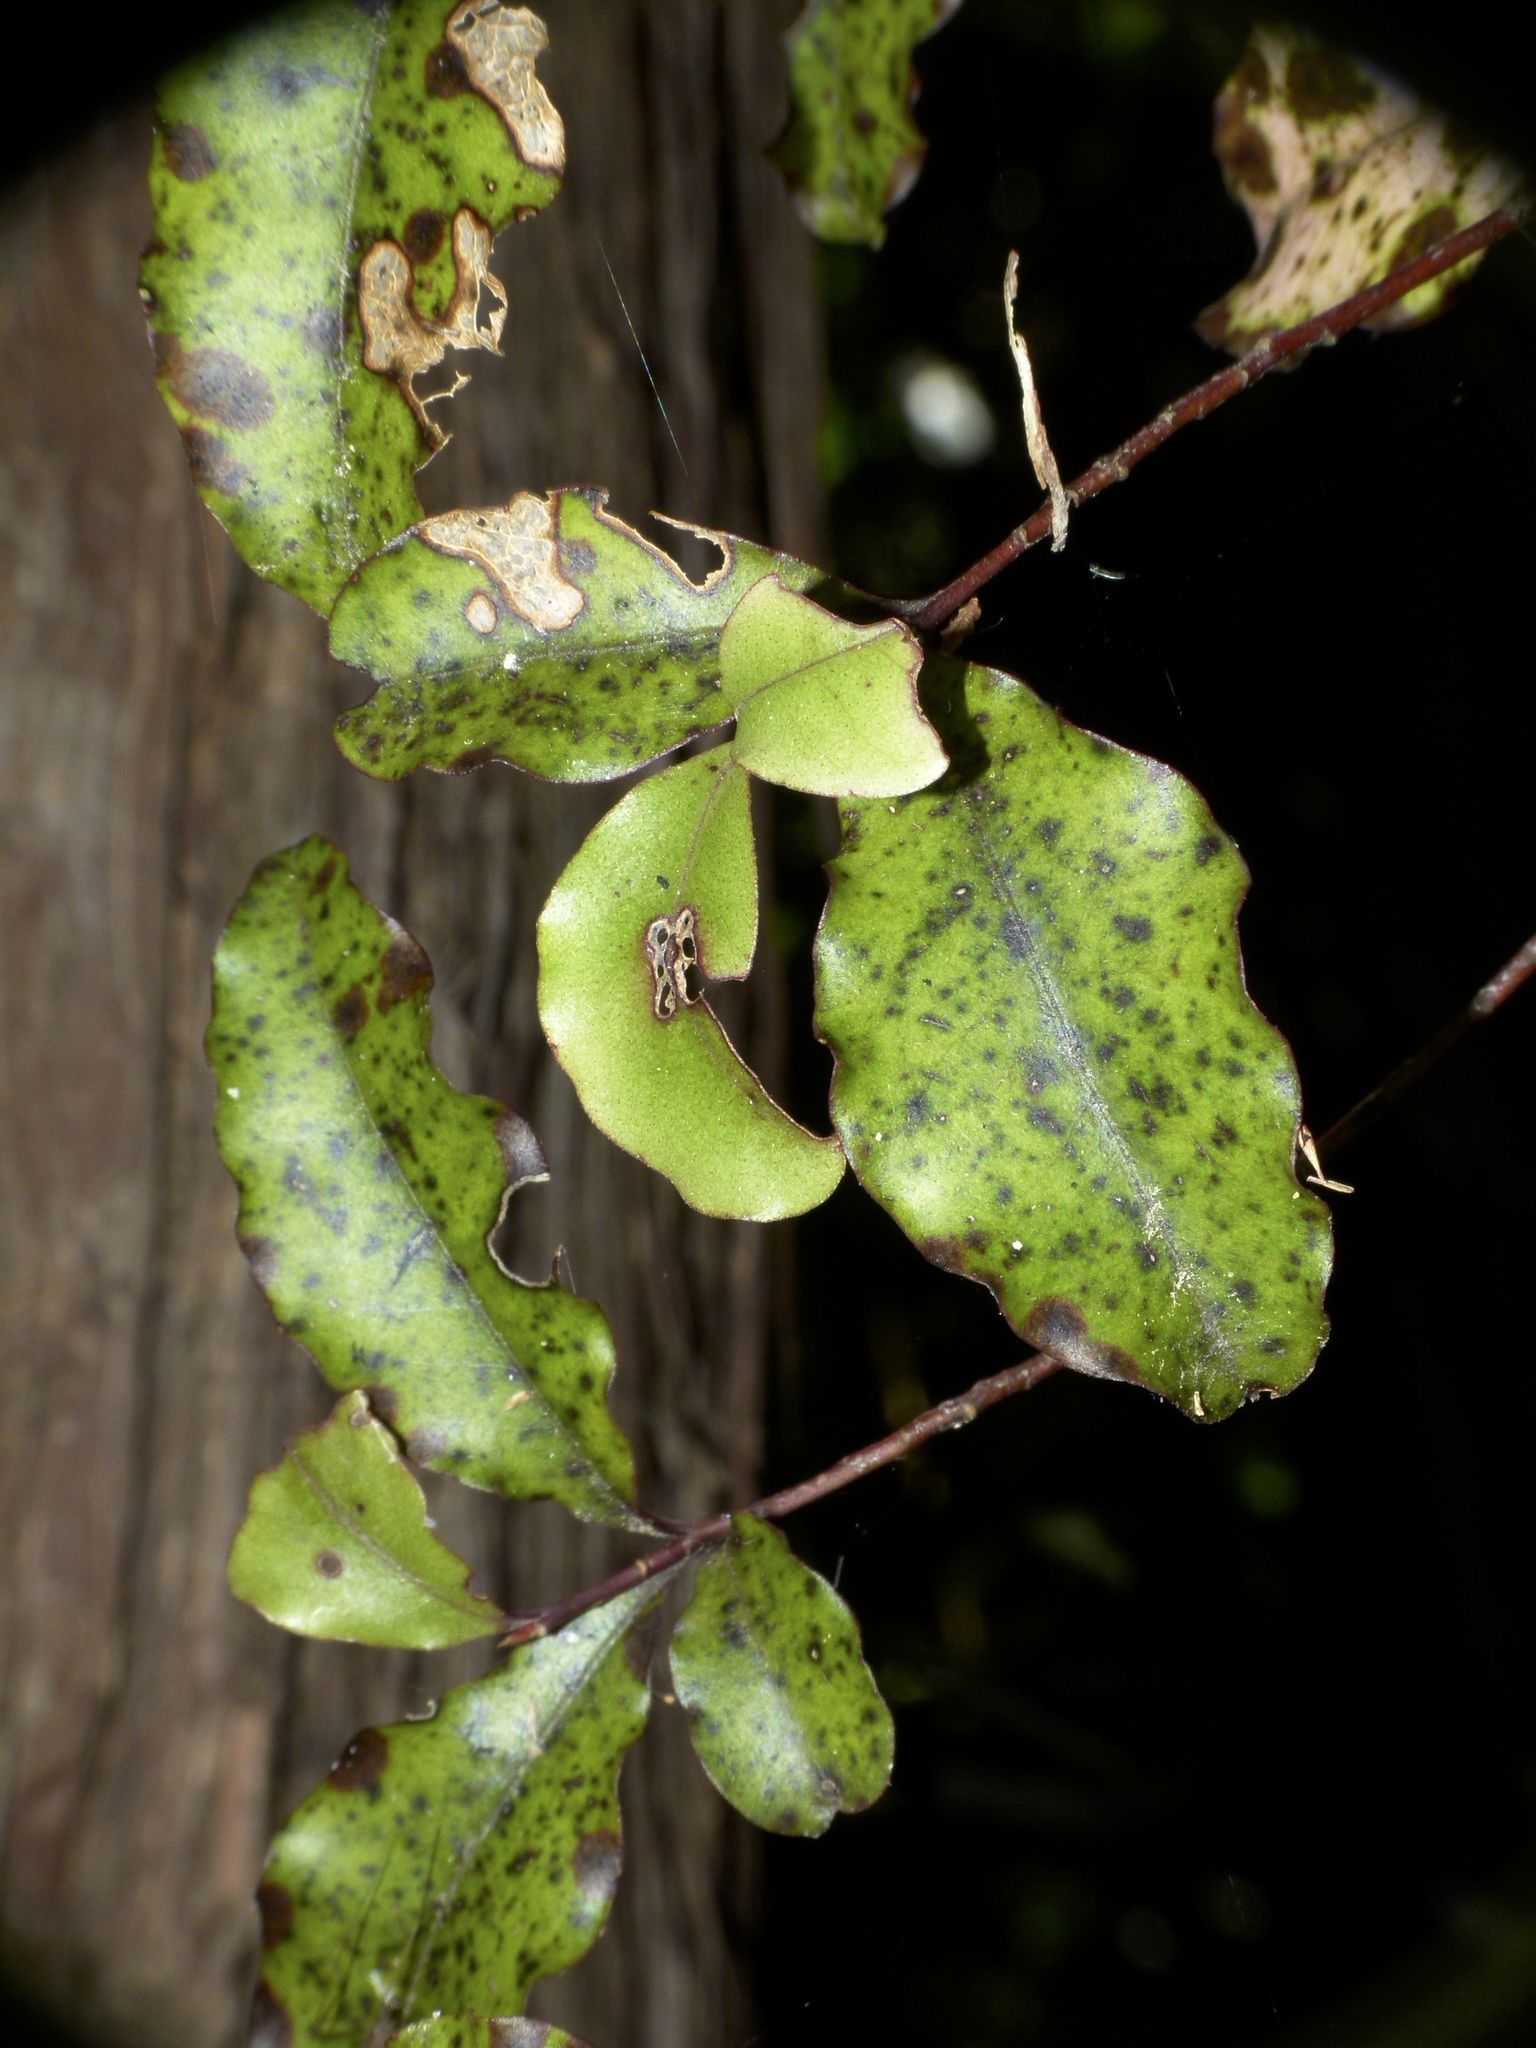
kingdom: Plantae
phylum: Tracheophyta
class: Magnoliopsida
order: Ericales
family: Primulaceae
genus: Myrsine
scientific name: Myrsine australis
